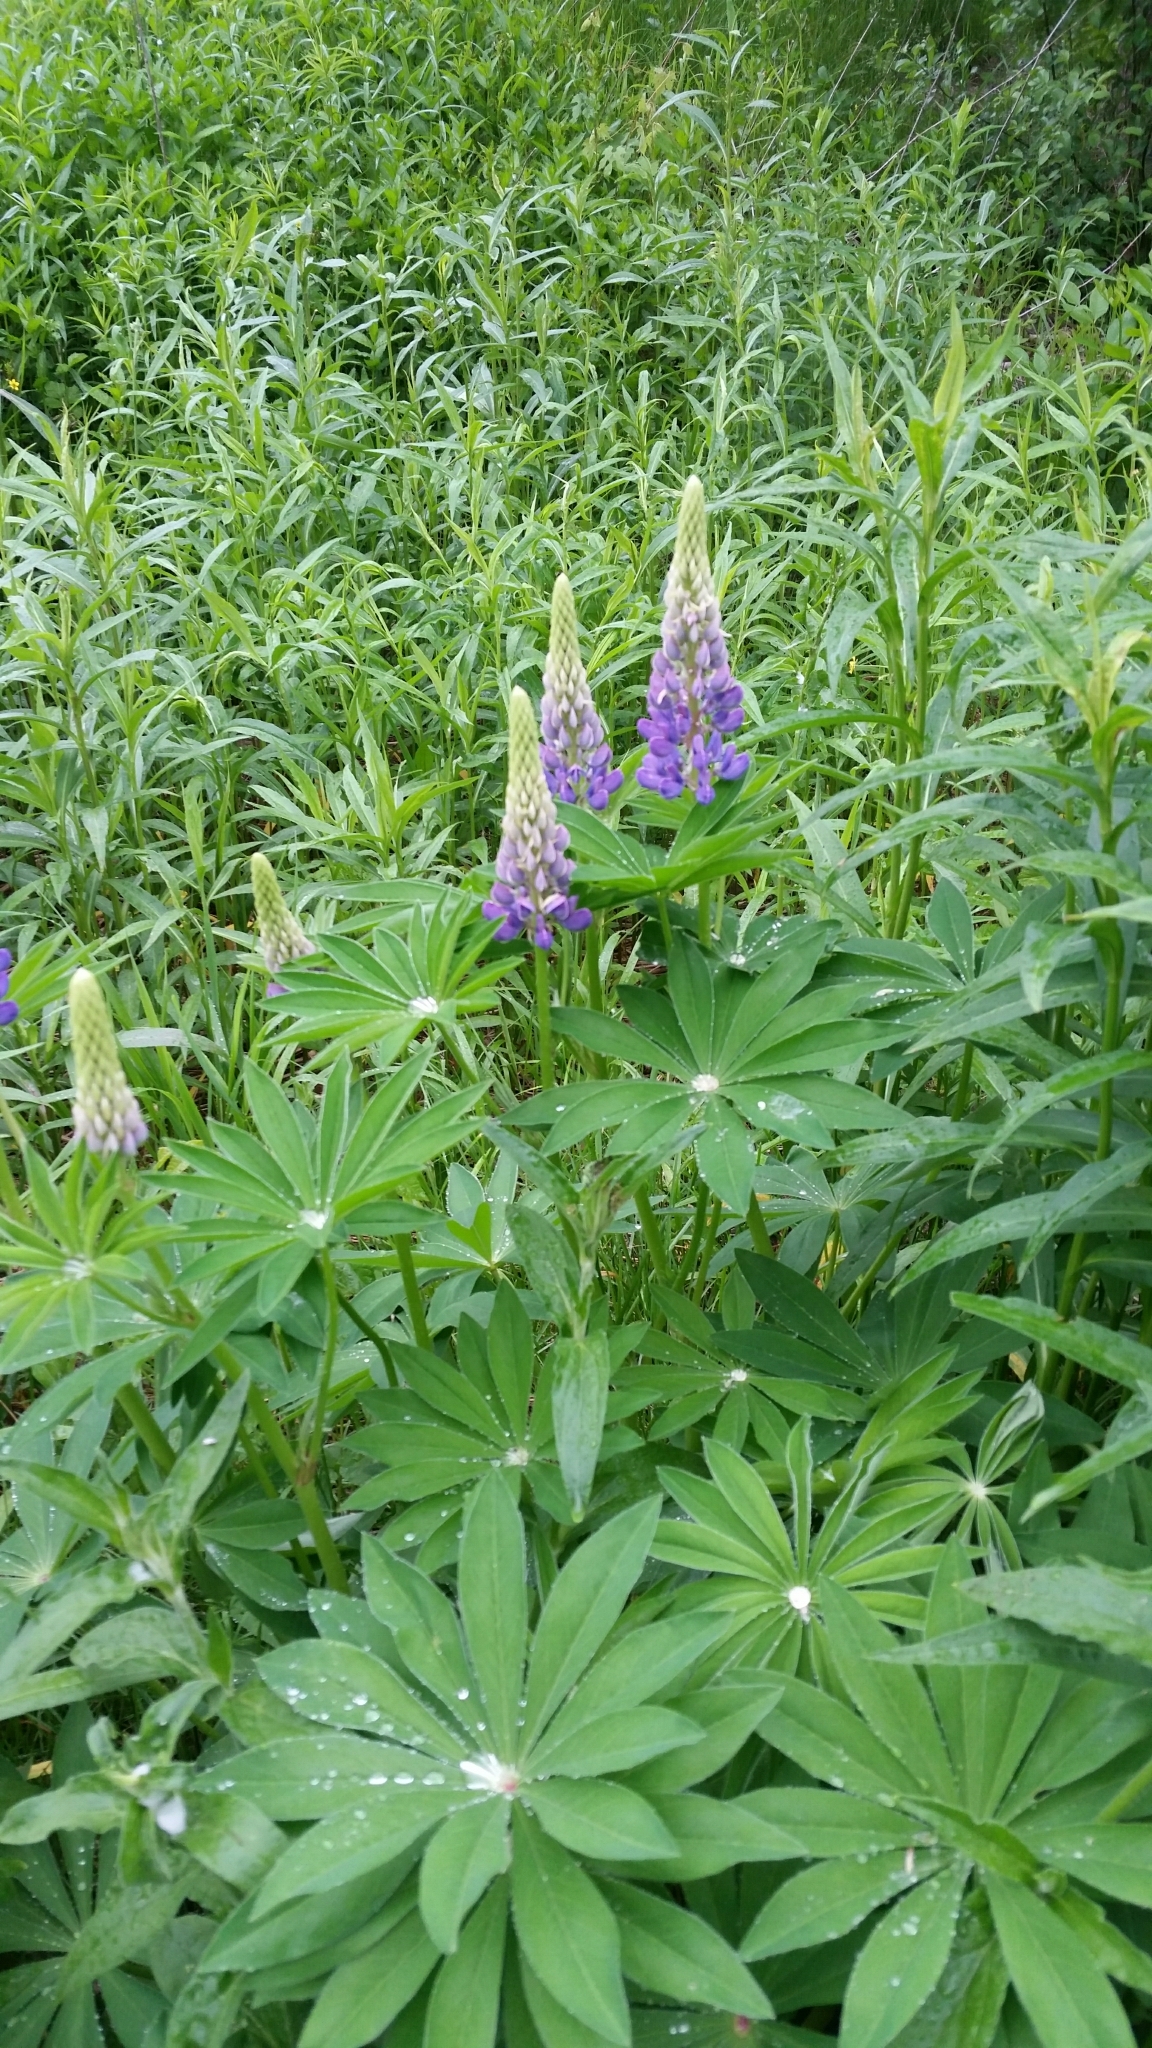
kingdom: Plantae
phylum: Tracheophyta
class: Magnoliopsida
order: Fabales
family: Fabaceae
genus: Lupinus
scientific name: Lupinus polyphyllus
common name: Garden lupin
